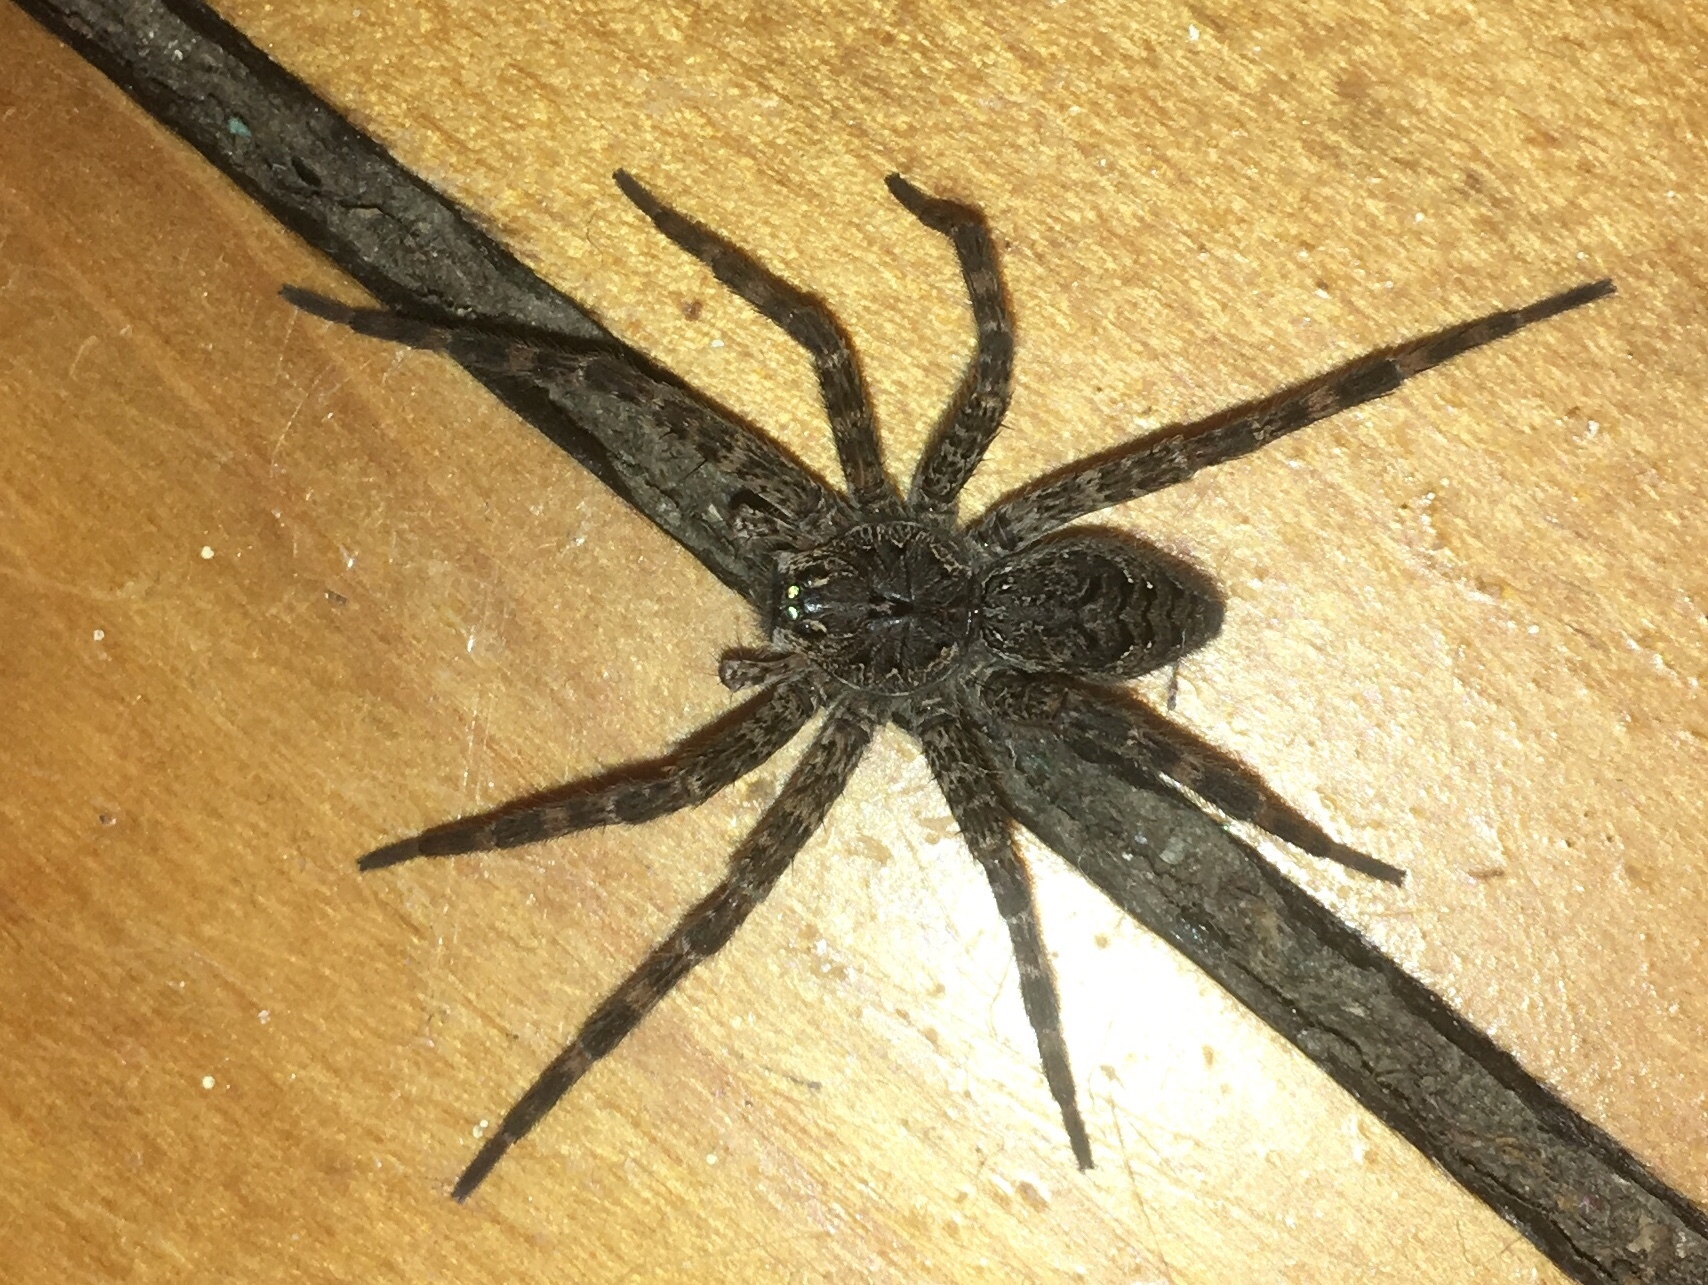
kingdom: Animalia
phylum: Arthropoda
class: Arachnida
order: Araneae
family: Pisauridae
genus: Dolomedes
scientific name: Dolomedes tenebrosus
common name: Dark fishing spider
